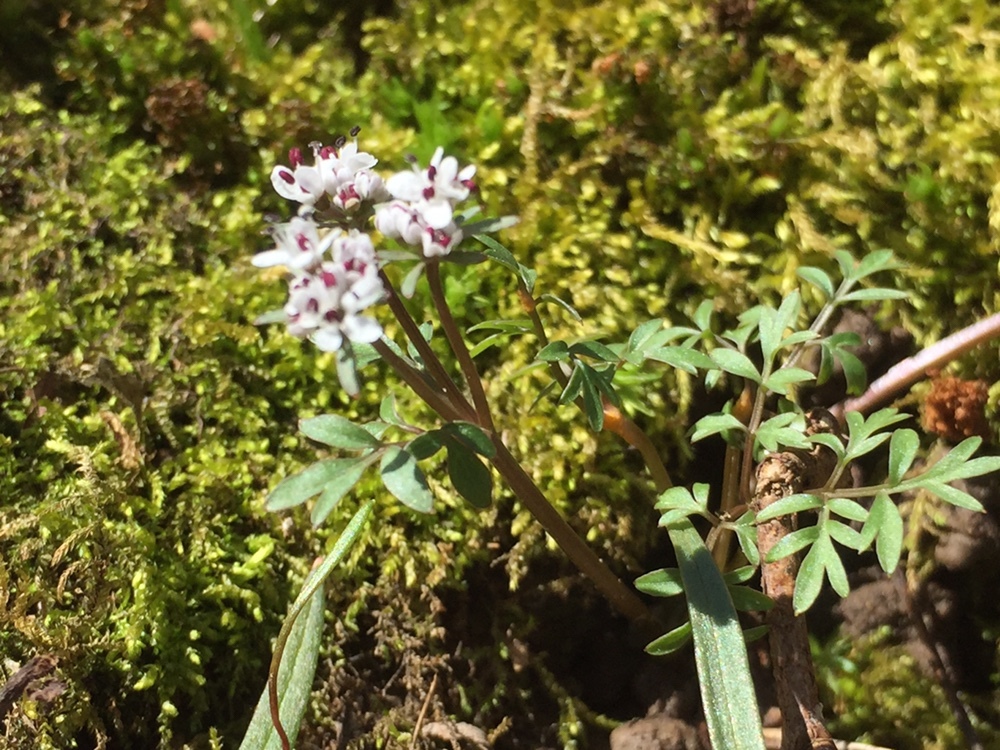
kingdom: Plantae
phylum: Tracheophyta
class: Magnoliopsida
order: Apiales
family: Apiaceae
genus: Erigenia
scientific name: Erigenia bulbosa
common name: Pepper-and-salt
